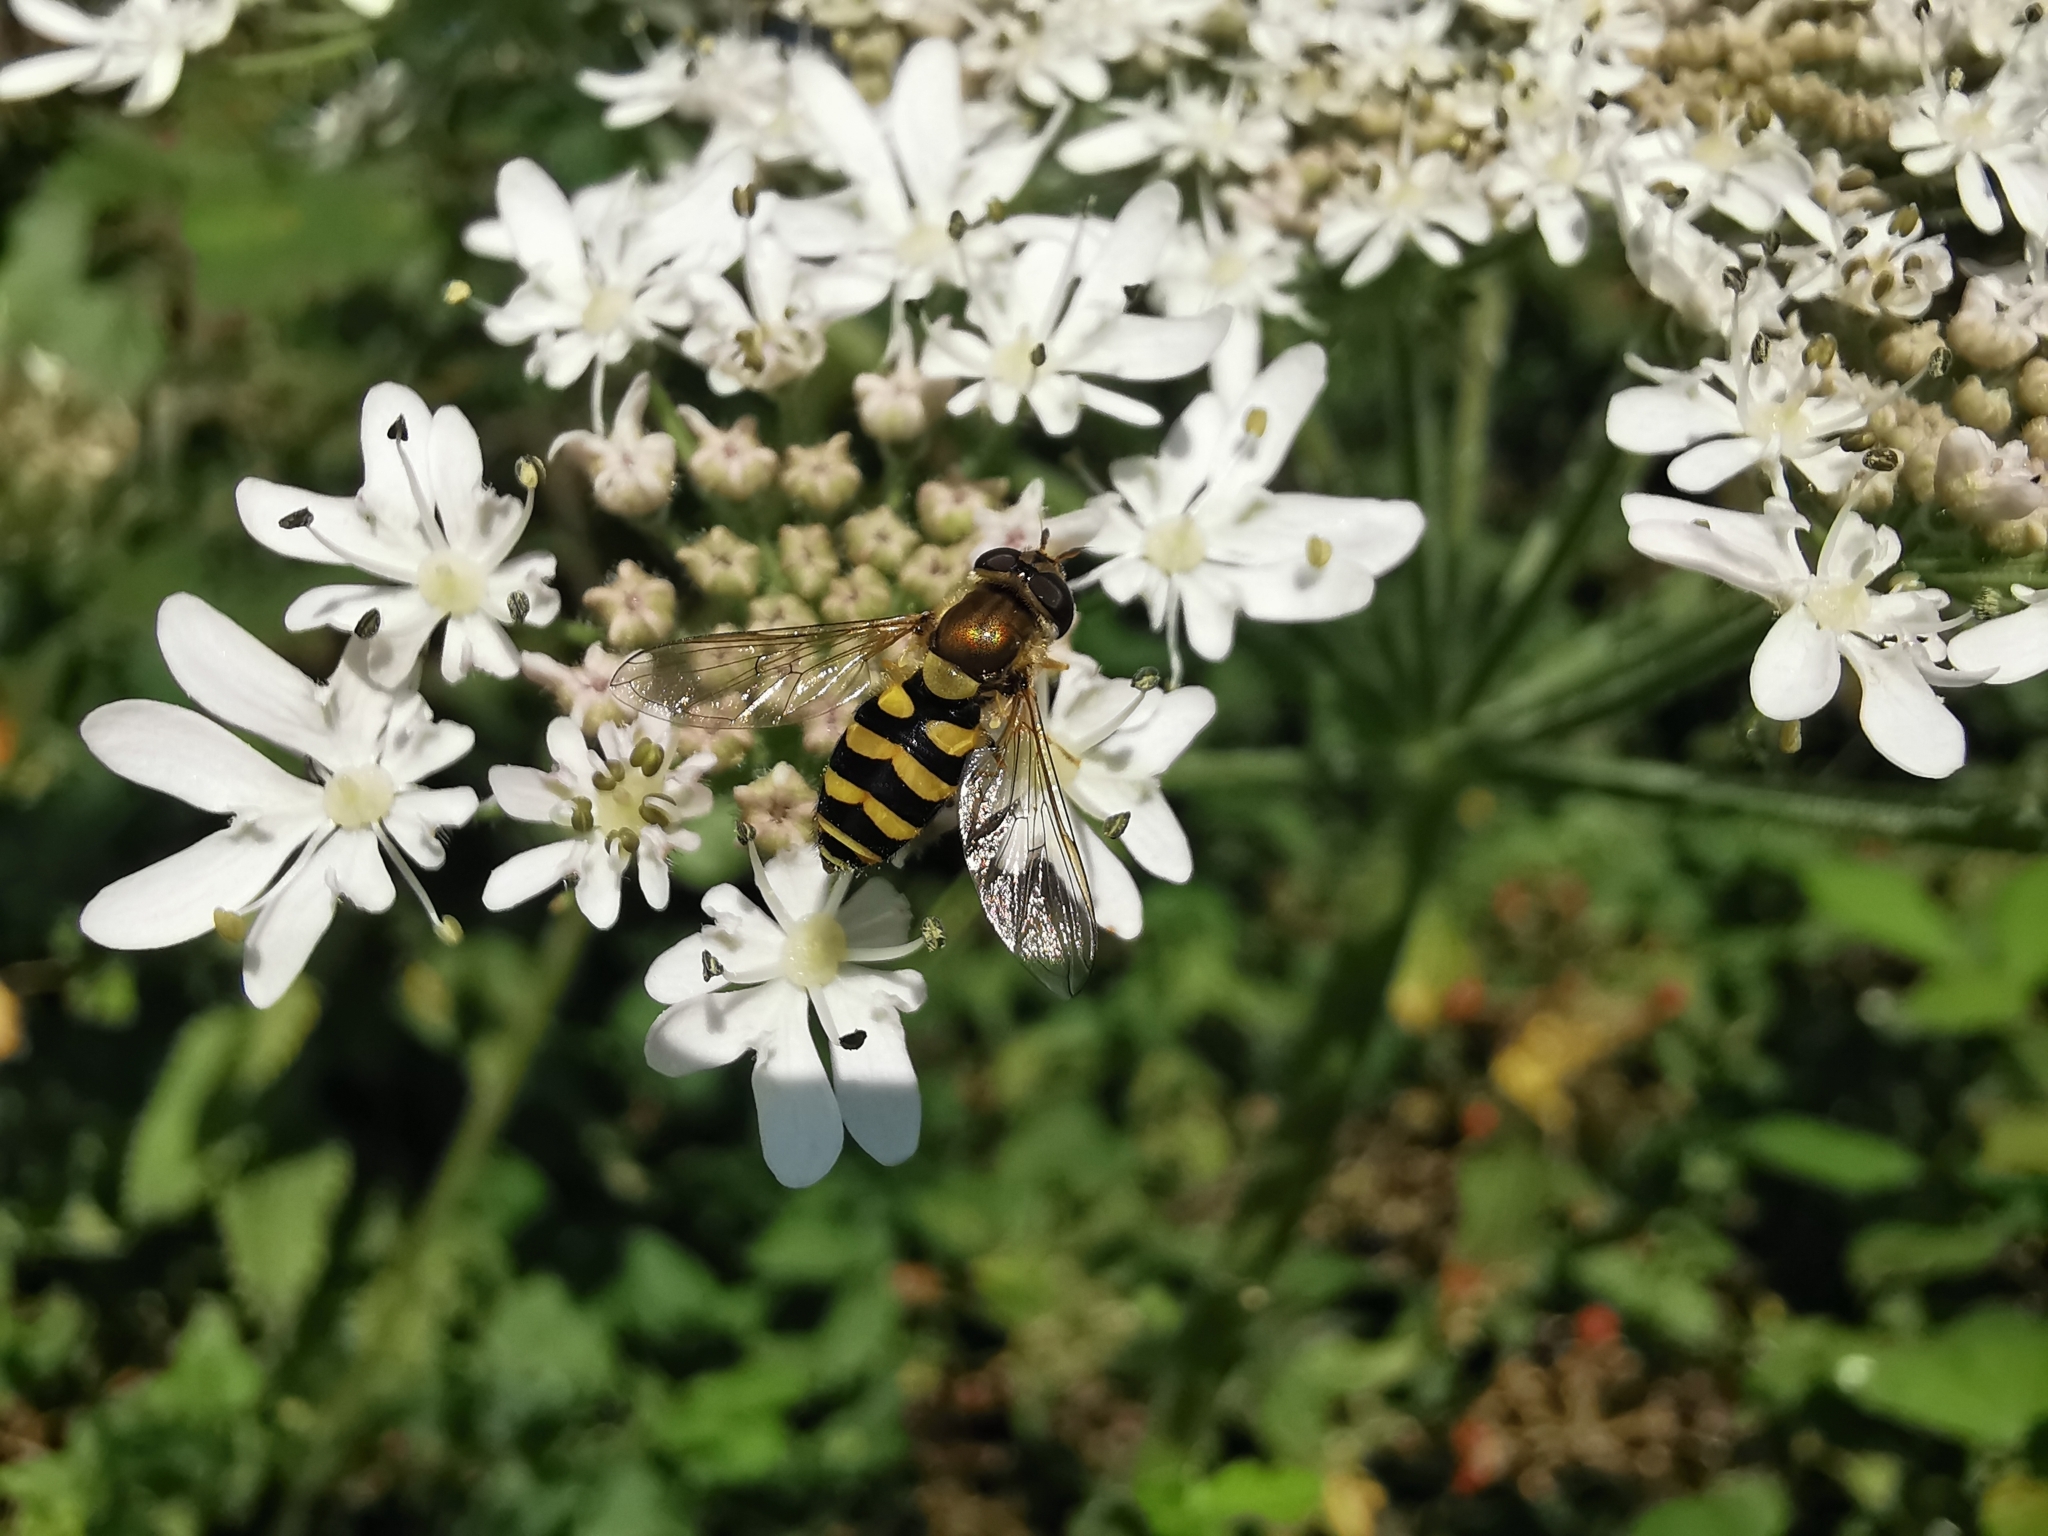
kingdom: Animalia
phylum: Arthropoda
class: Insecta
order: Diptera
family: Syrphidae
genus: Syrphus
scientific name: Syrphus
